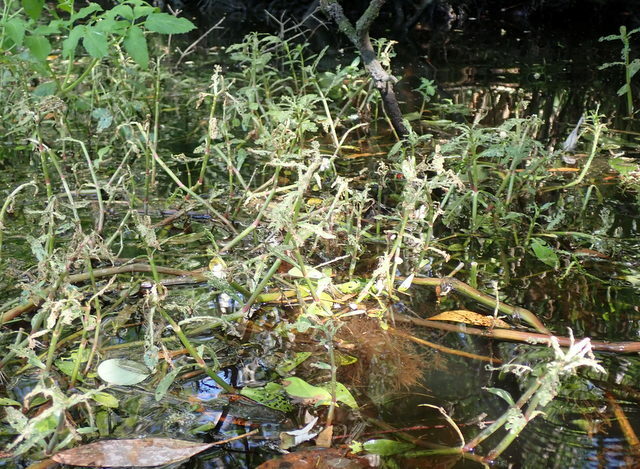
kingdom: Plantae
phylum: Tracheophyta
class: Magnoliopsida
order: Caryophyllales
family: Amaranthaceae
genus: Alternanthera
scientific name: Alternanthera philoxeroides
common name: Alligatorweed
